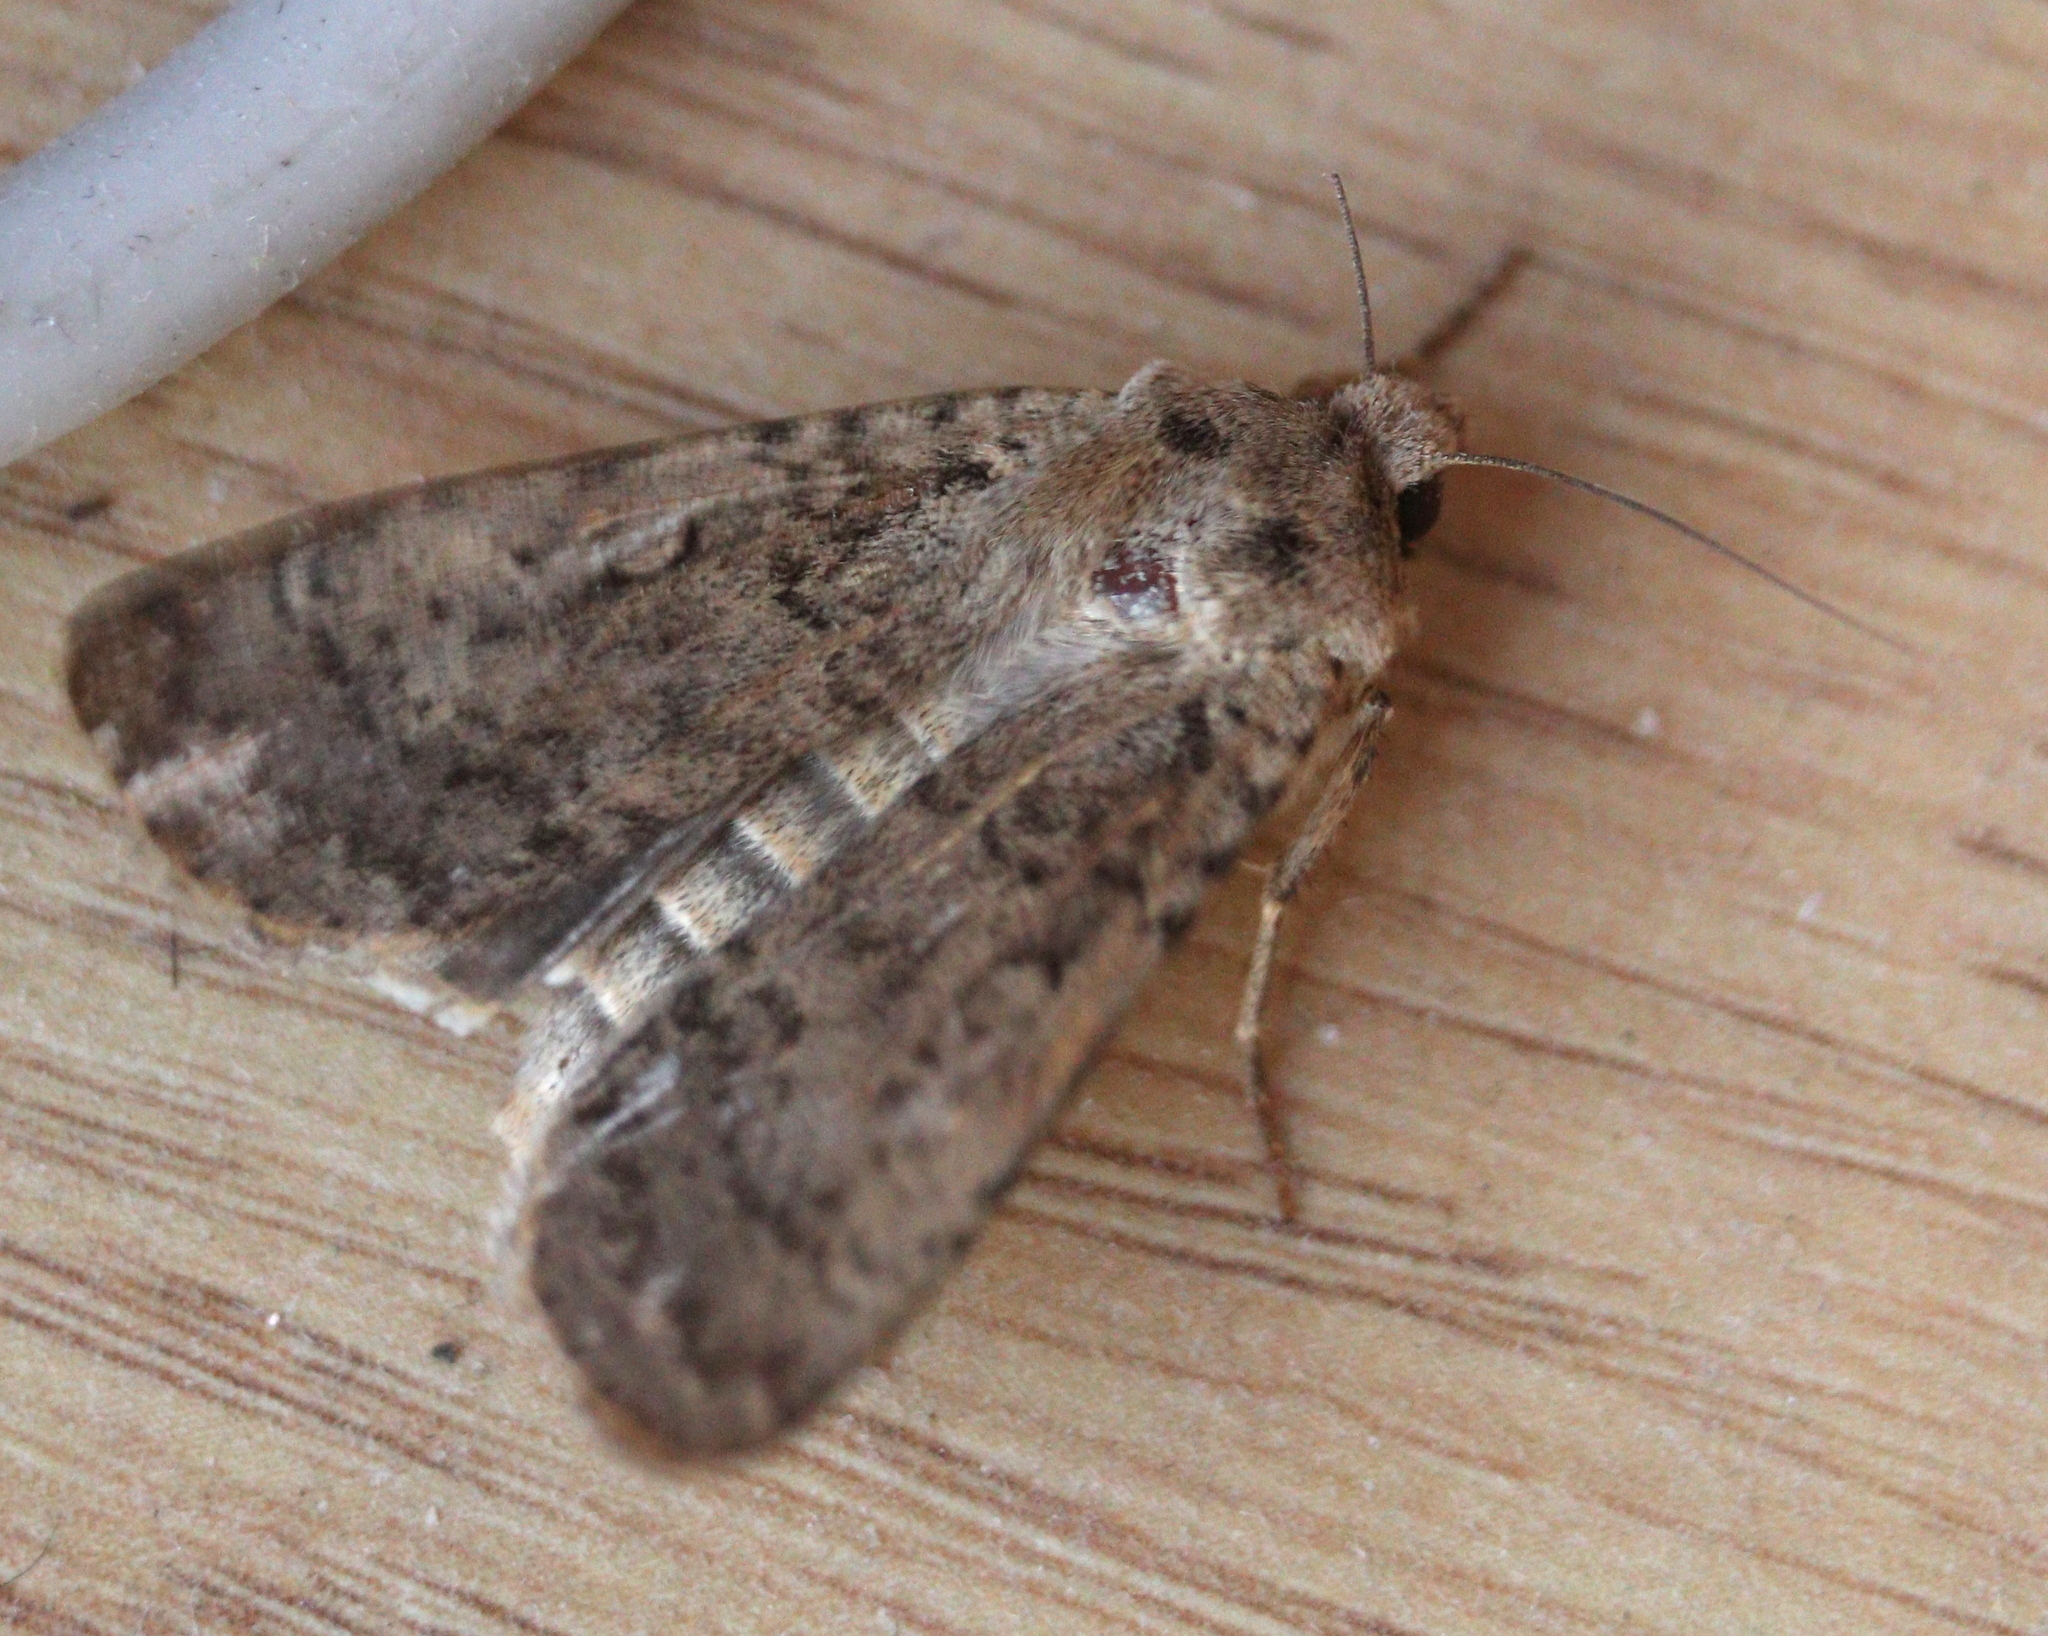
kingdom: Animalia
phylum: Arthropoda
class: Insecta
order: Lepidoptera
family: Noctuidae
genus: Rhyacia
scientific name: Rhyacia simulans
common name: Dotted rustic
